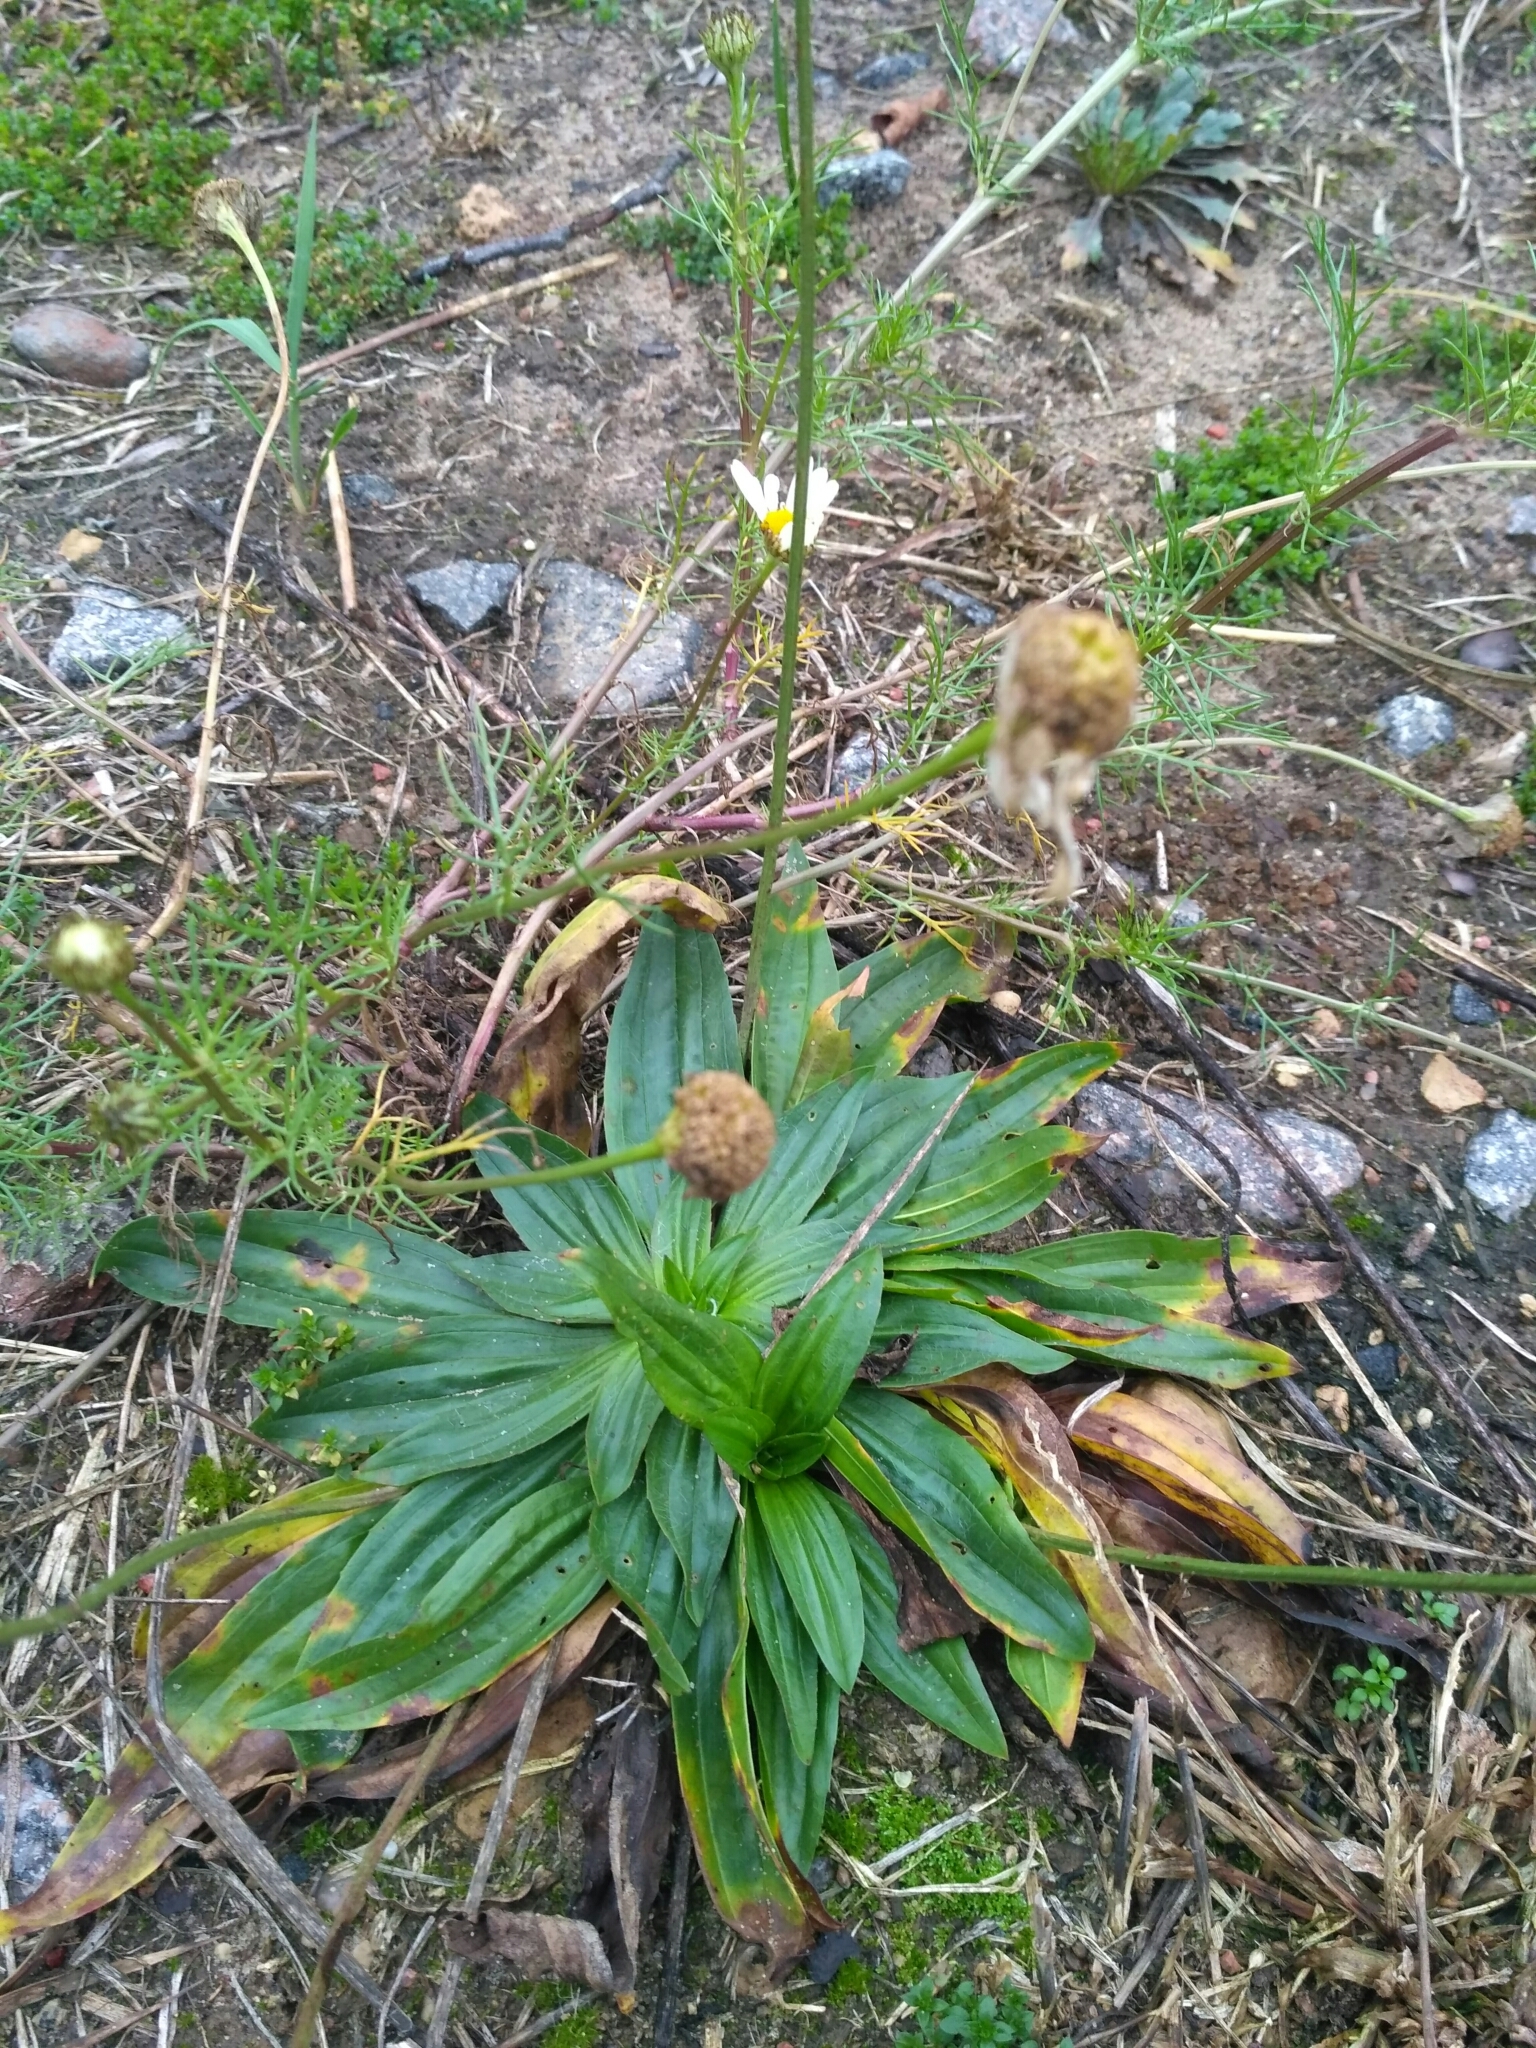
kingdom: Plantae
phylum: Tracheophyta
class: Magnoliopsida
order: Lamiales
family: Plantaginaceae
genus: Plantago
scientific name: Plantago lanceolata
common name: Ribwort plantain
